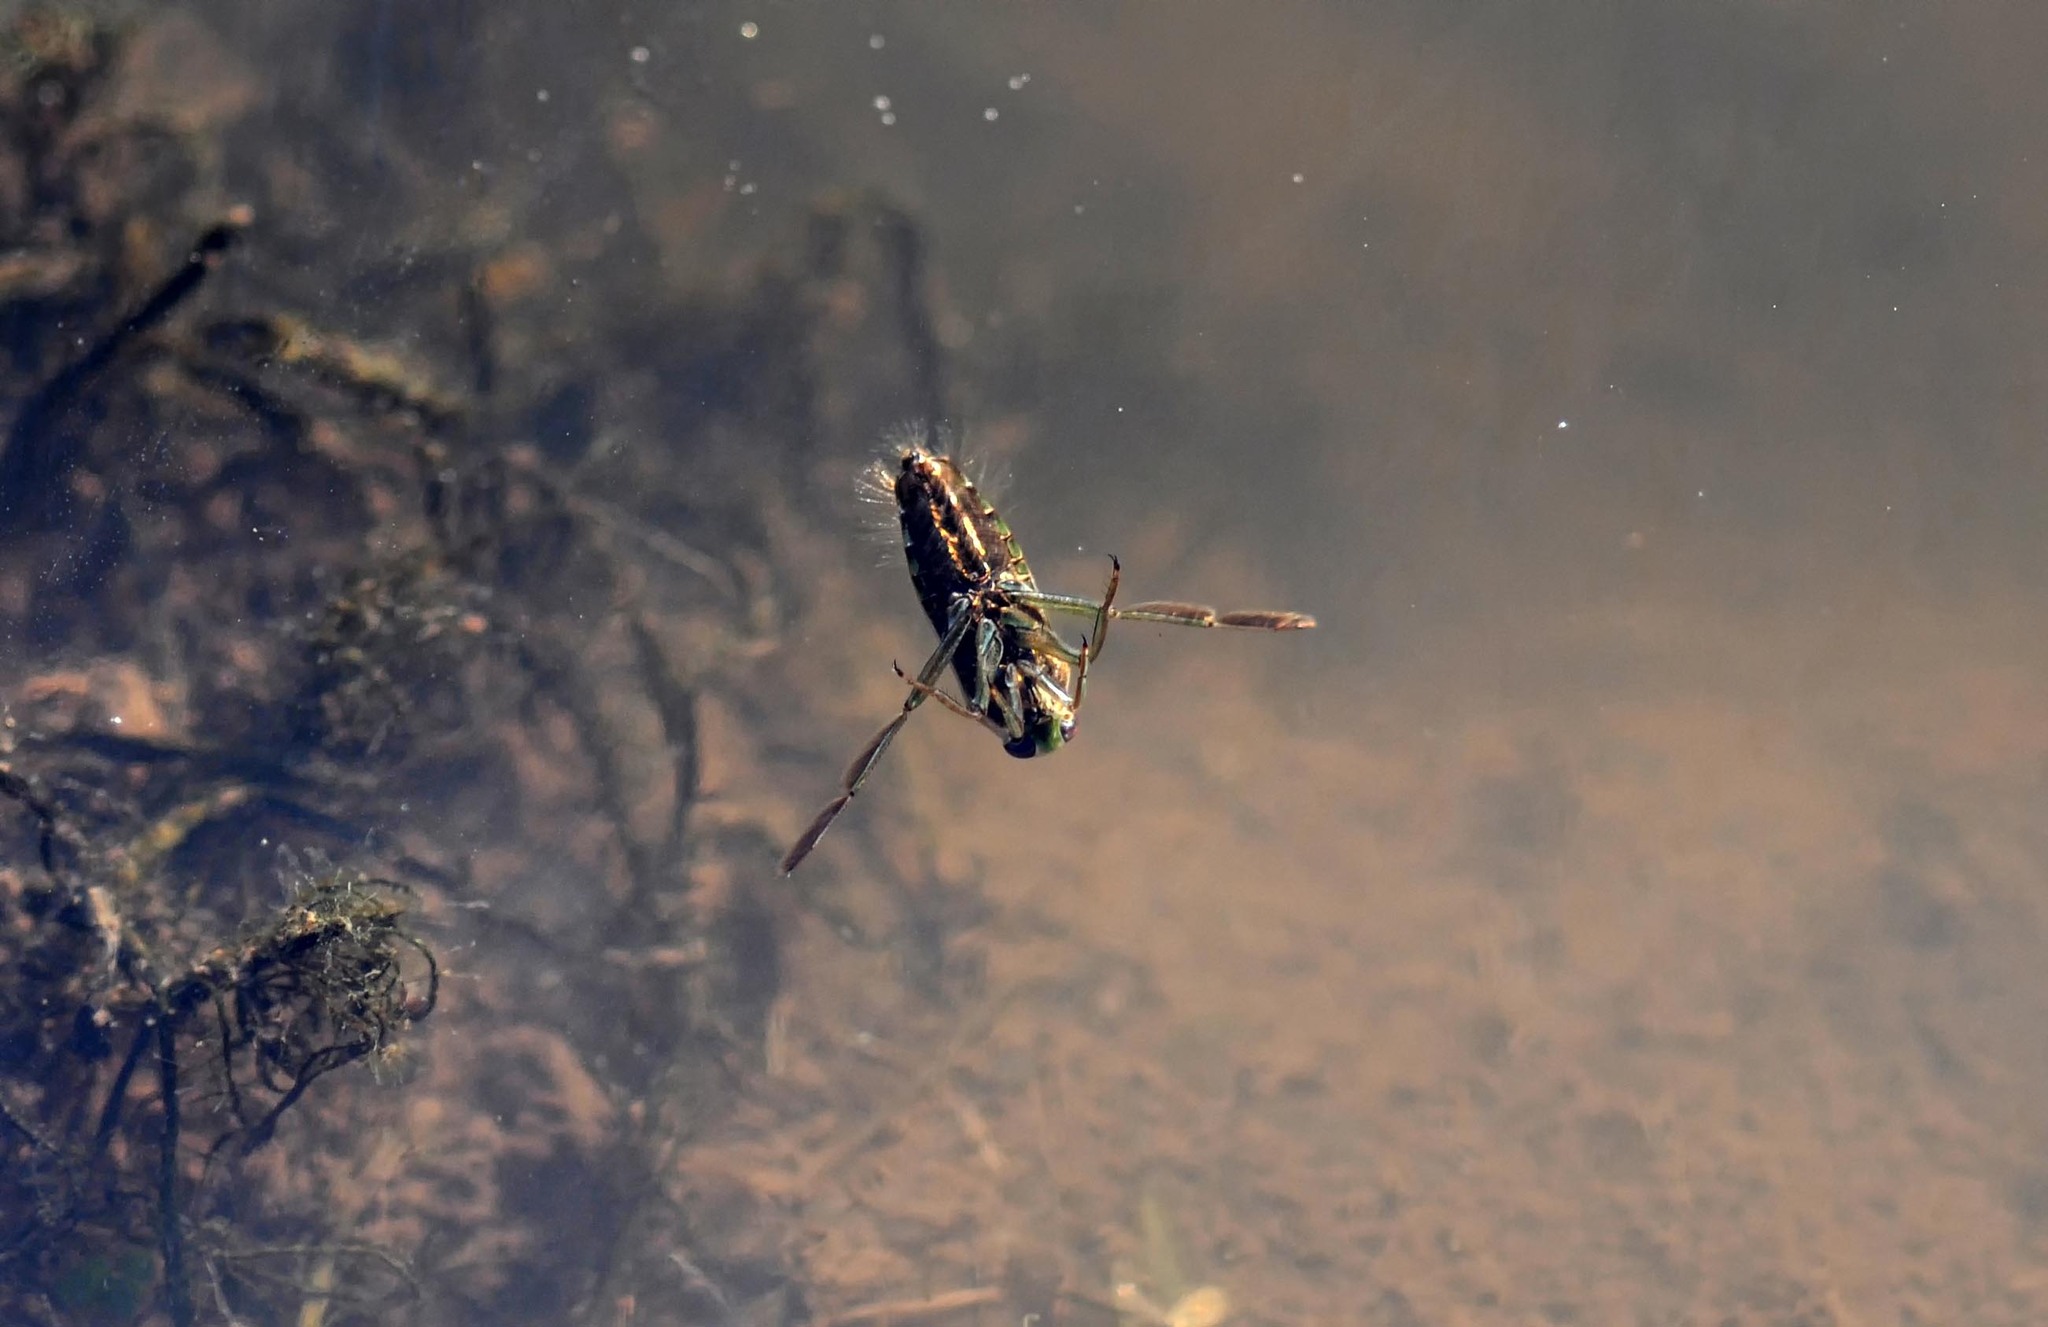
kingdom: Animalia
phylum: Arthropoda
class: Insecta
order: Hemiptera
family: Notonectidae
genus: Notonecta
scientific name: Notonecta
